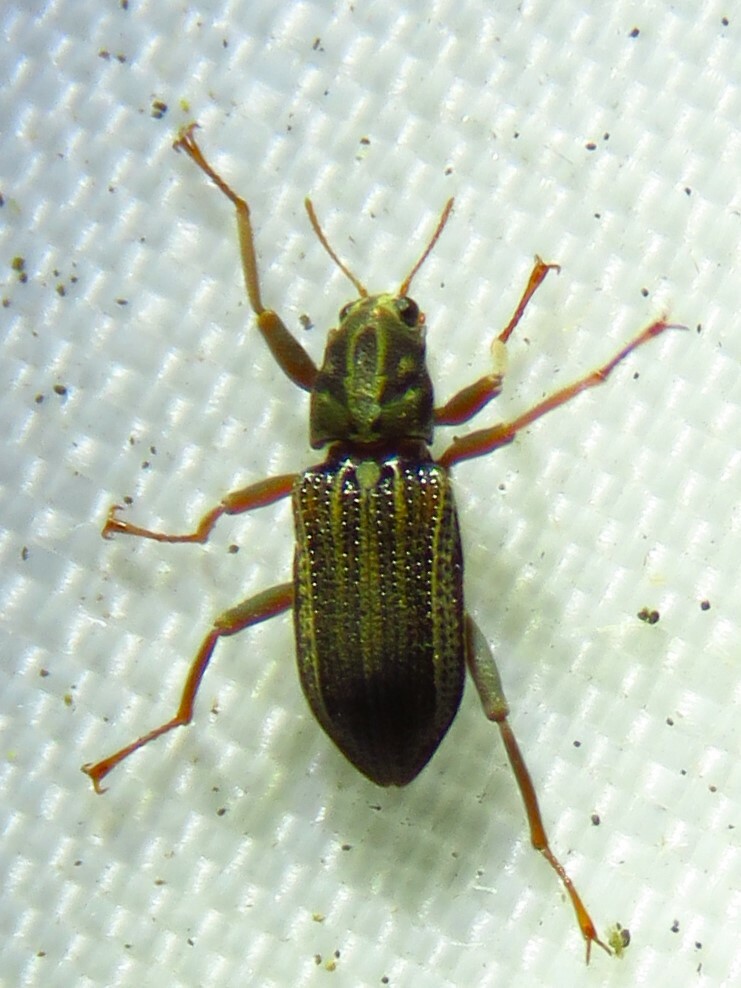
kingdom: Animalia
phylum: Arthropoda
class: Insecta
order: Coleoptera
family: Elmidae
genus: Stenelmis
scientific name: Stenelmis
